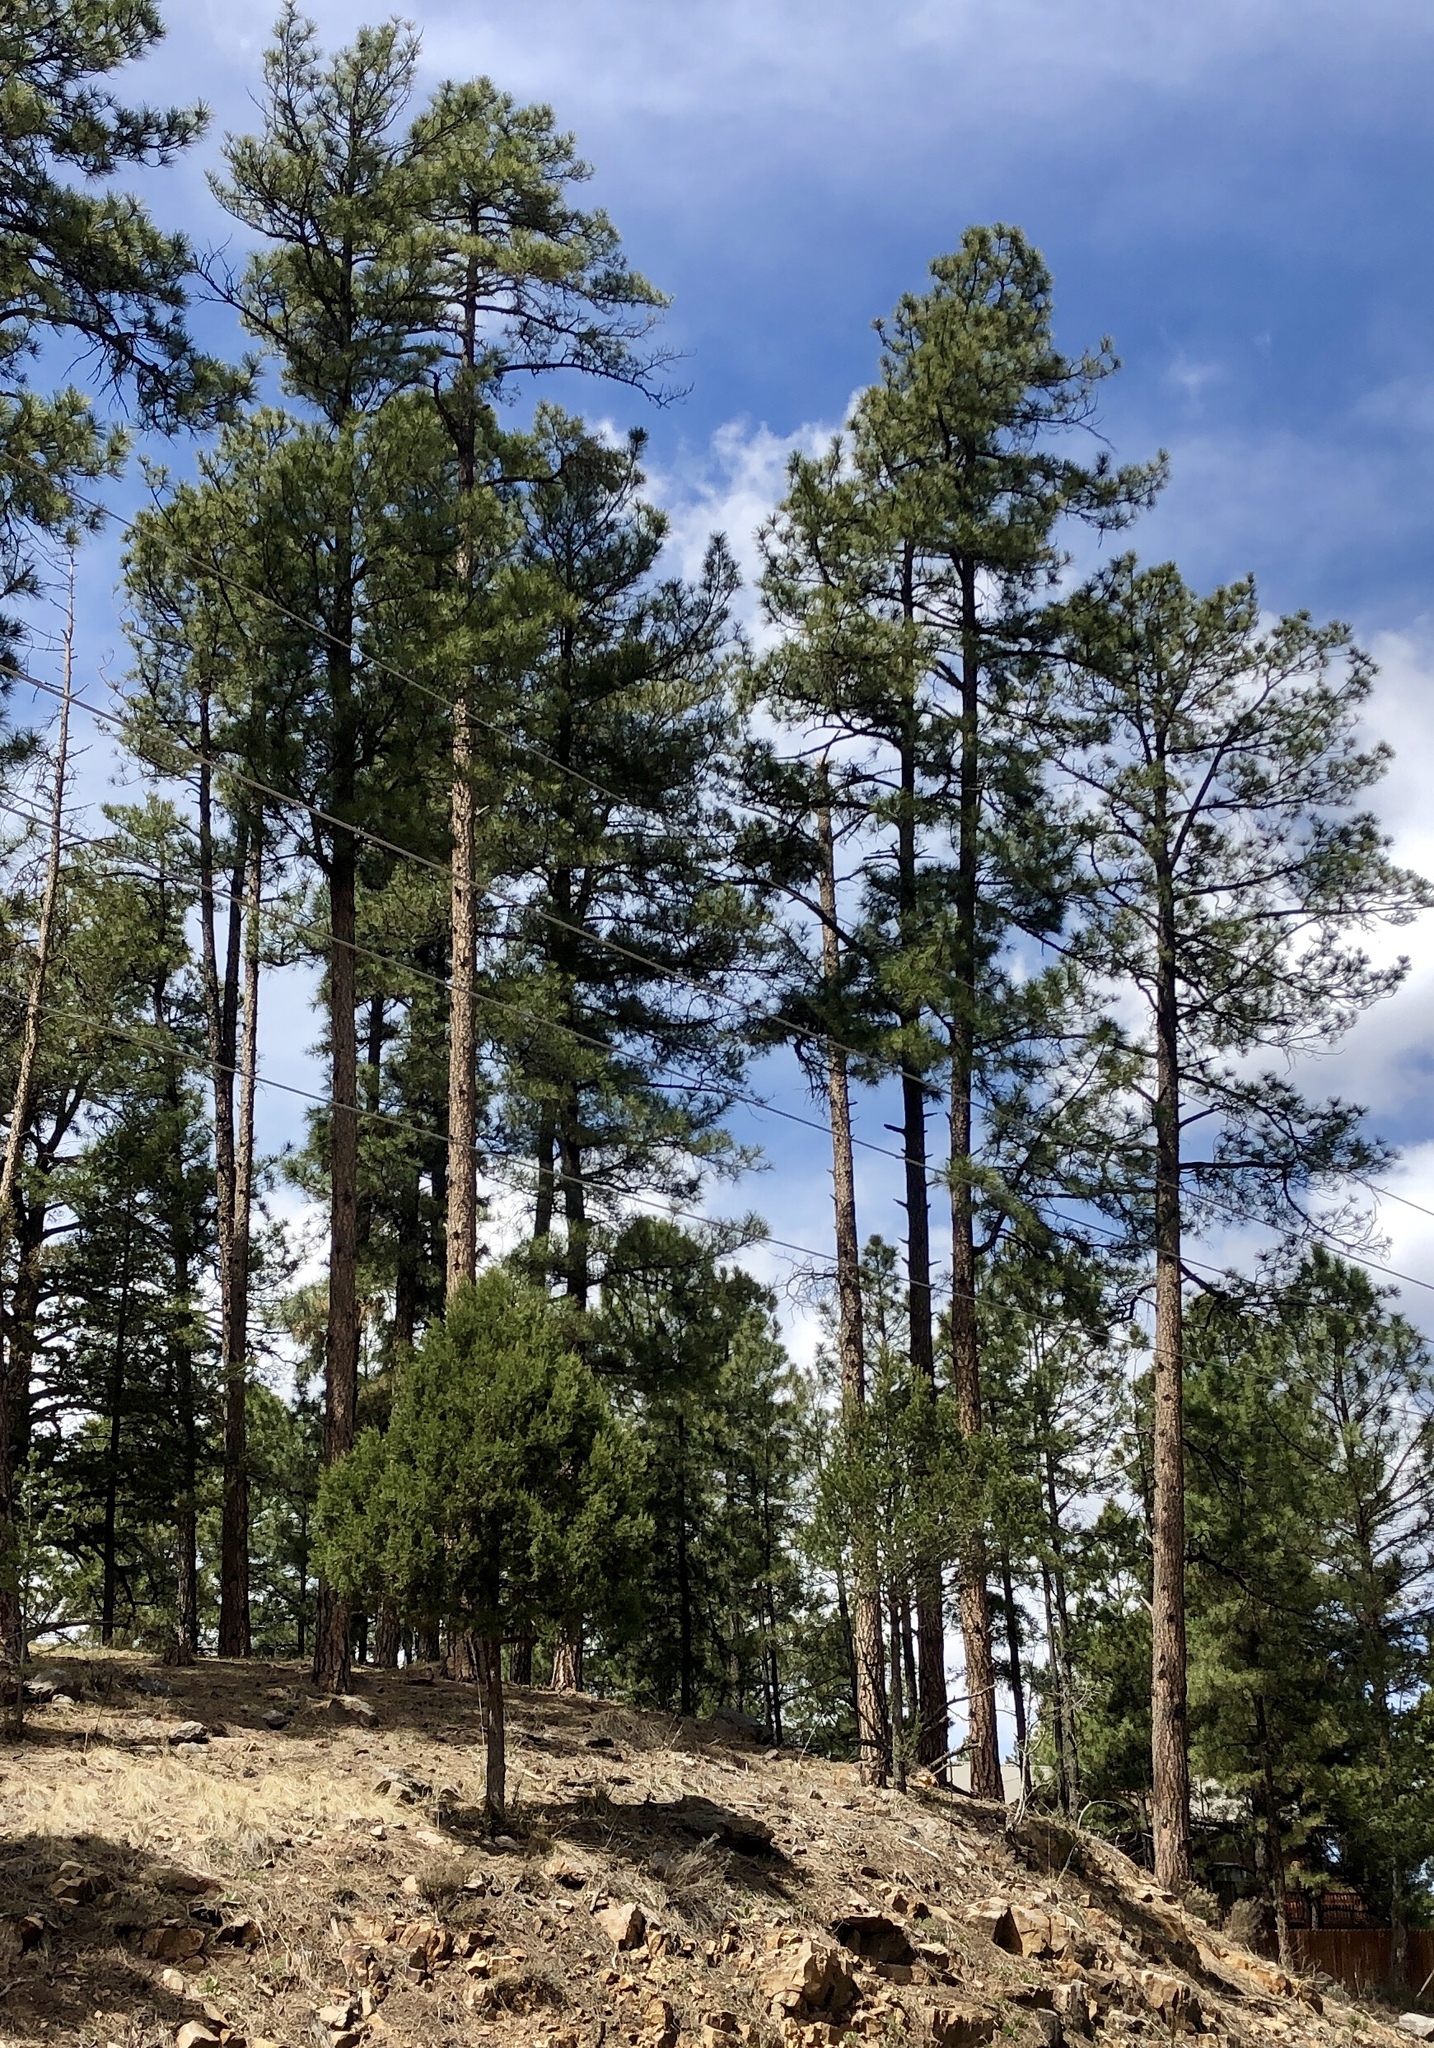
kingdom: Plantae
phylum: Tracheophyta
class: Pinopsida
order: Pinales
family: Pinaceae
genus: Pinus
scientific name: Pinus ponderosa
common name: Western yellow-pine
